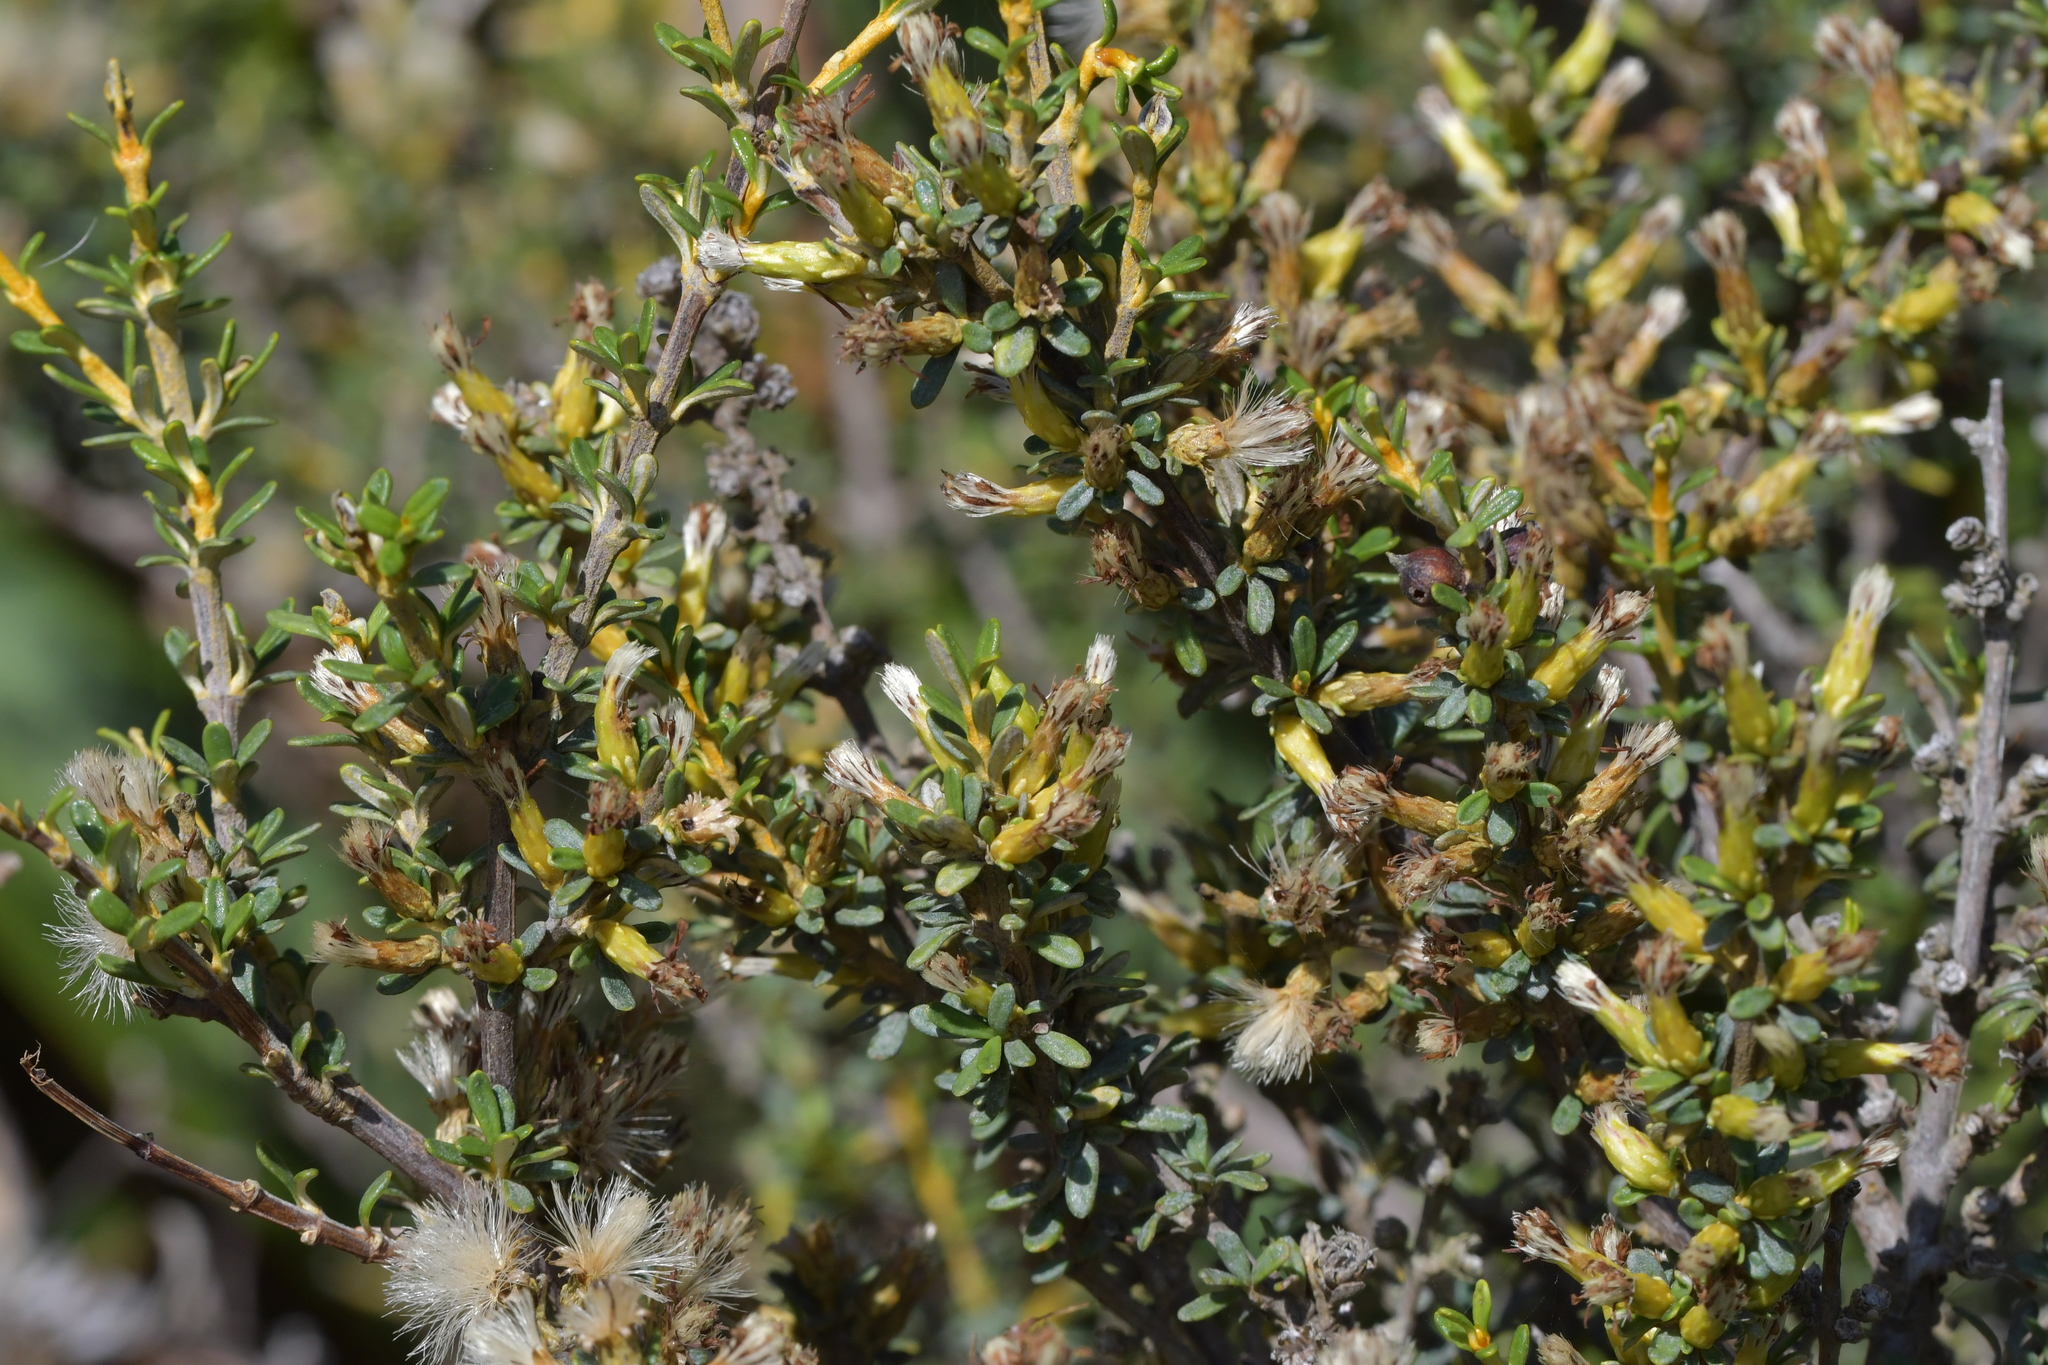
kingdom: Plantae
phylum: Tracheophyta
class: Magnoliopsida
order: Asterales
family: Asteraceae
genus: Olearia
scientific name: Olearia solandri
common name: Coastal daisybush
